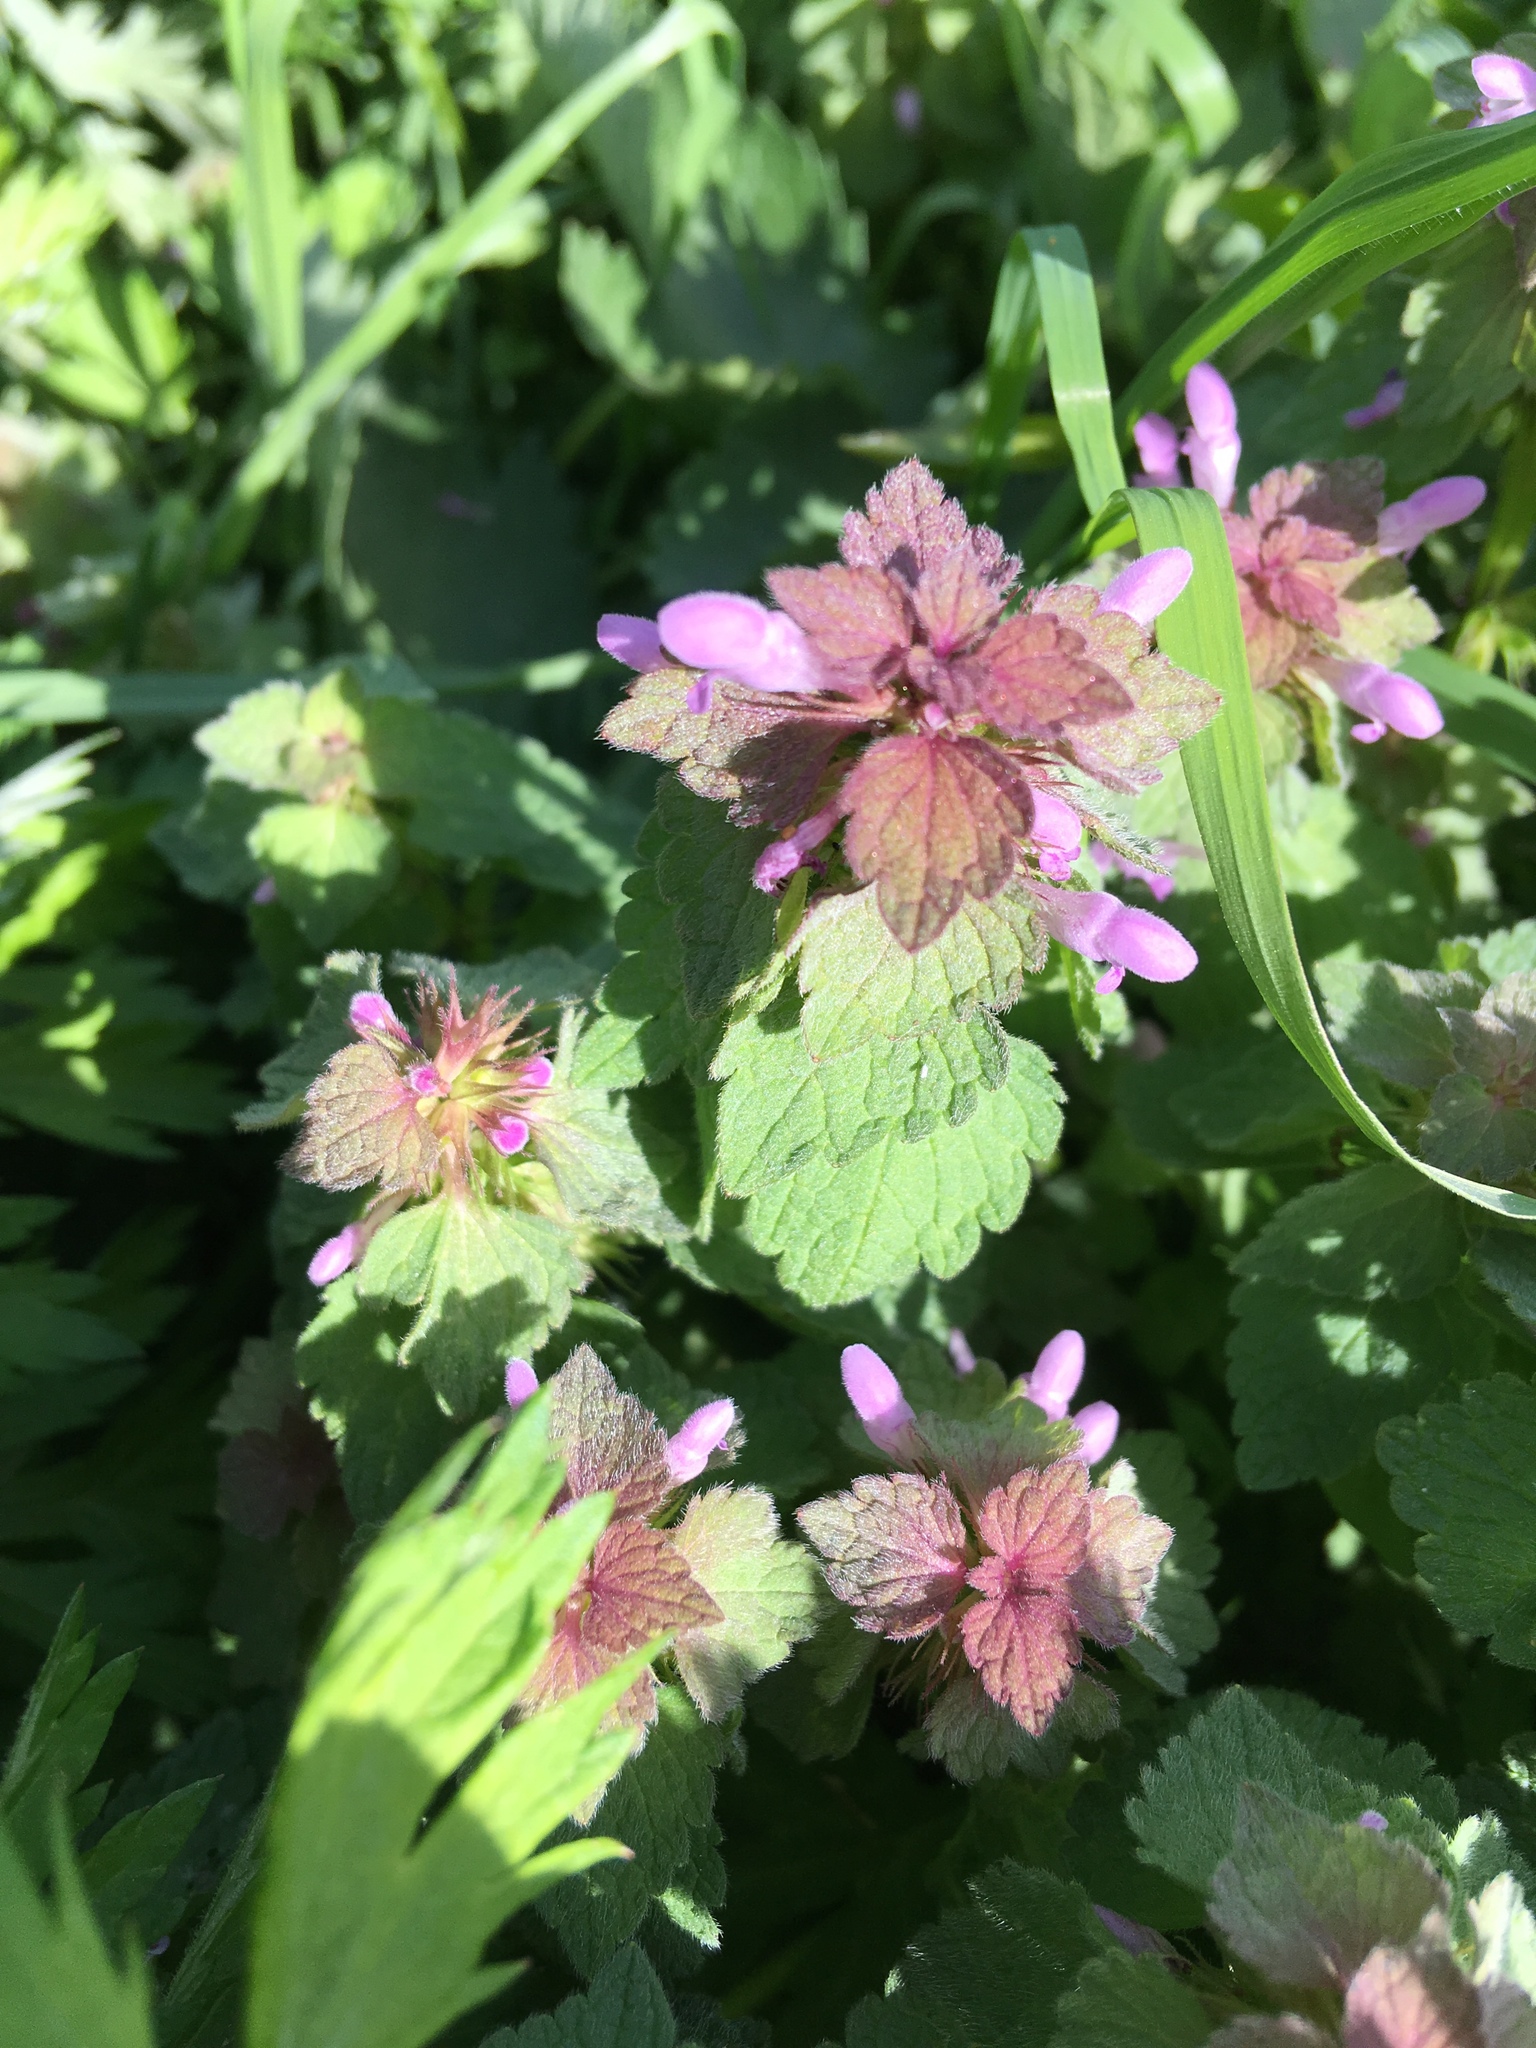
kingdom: Plantae
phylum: Tracheophyta
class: Magnoliopsida
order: Lamiales
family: Lamiaceae
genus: Lamium
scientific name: Lamium purpureum
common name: Red dead-nettle
